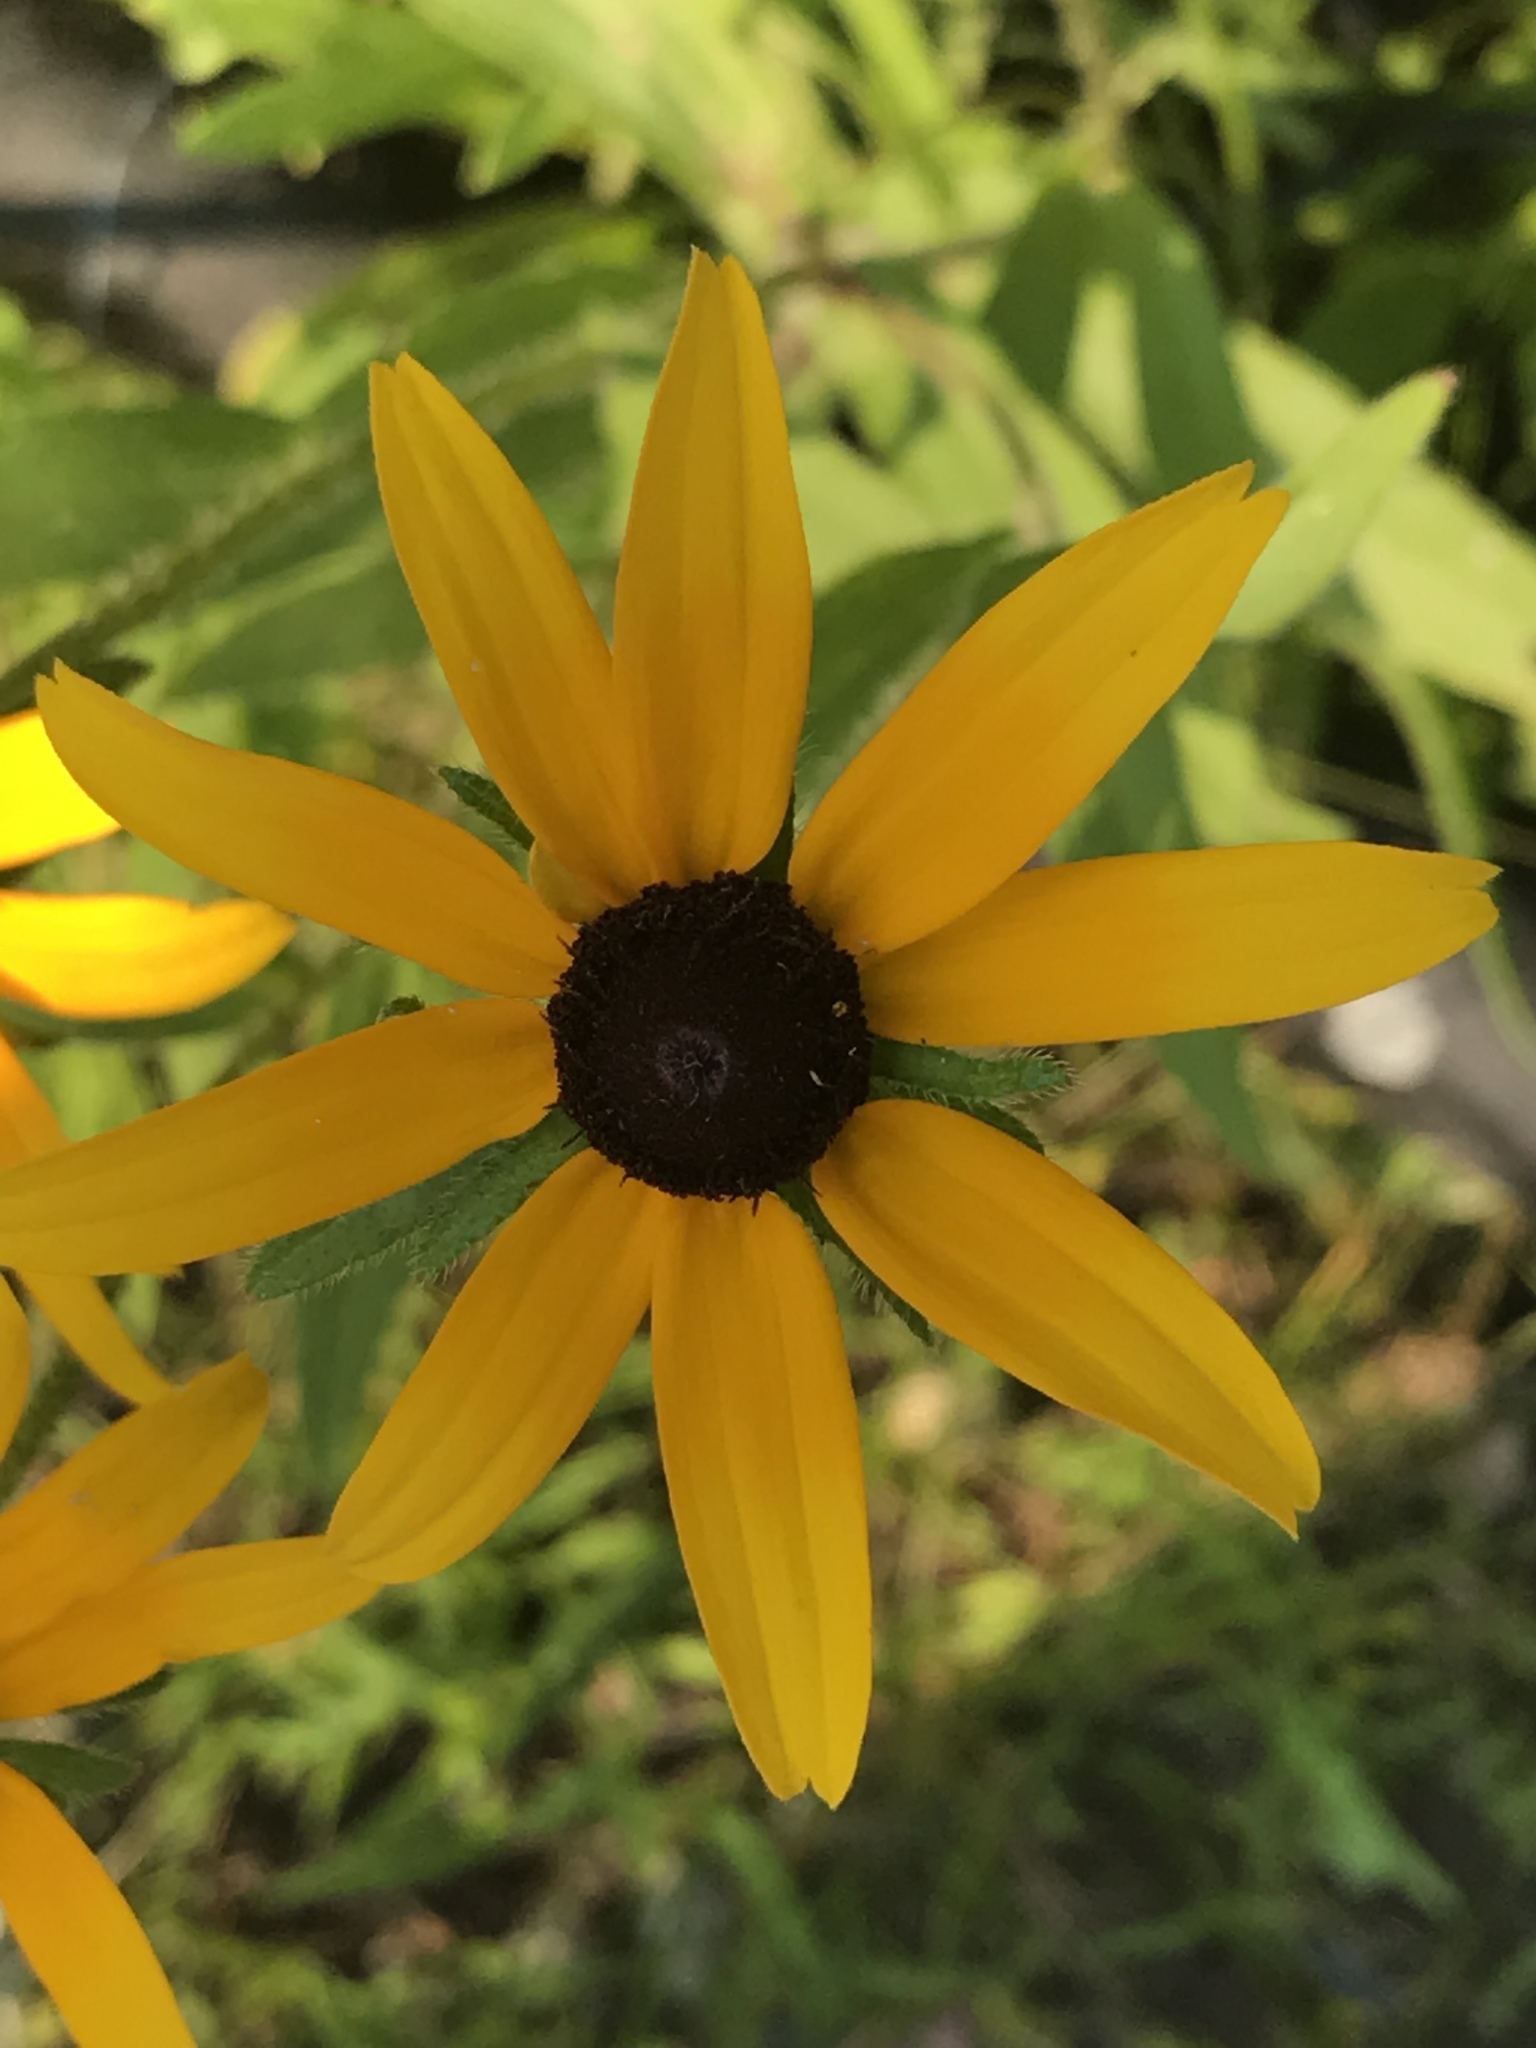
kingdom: Plantae
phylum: Tracheophyta
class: Magnoliopsida
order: Asterales
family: Asteraceae
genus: Rudbeckia
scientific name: Rudbeckia hirta
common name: Black-eyed-susan
